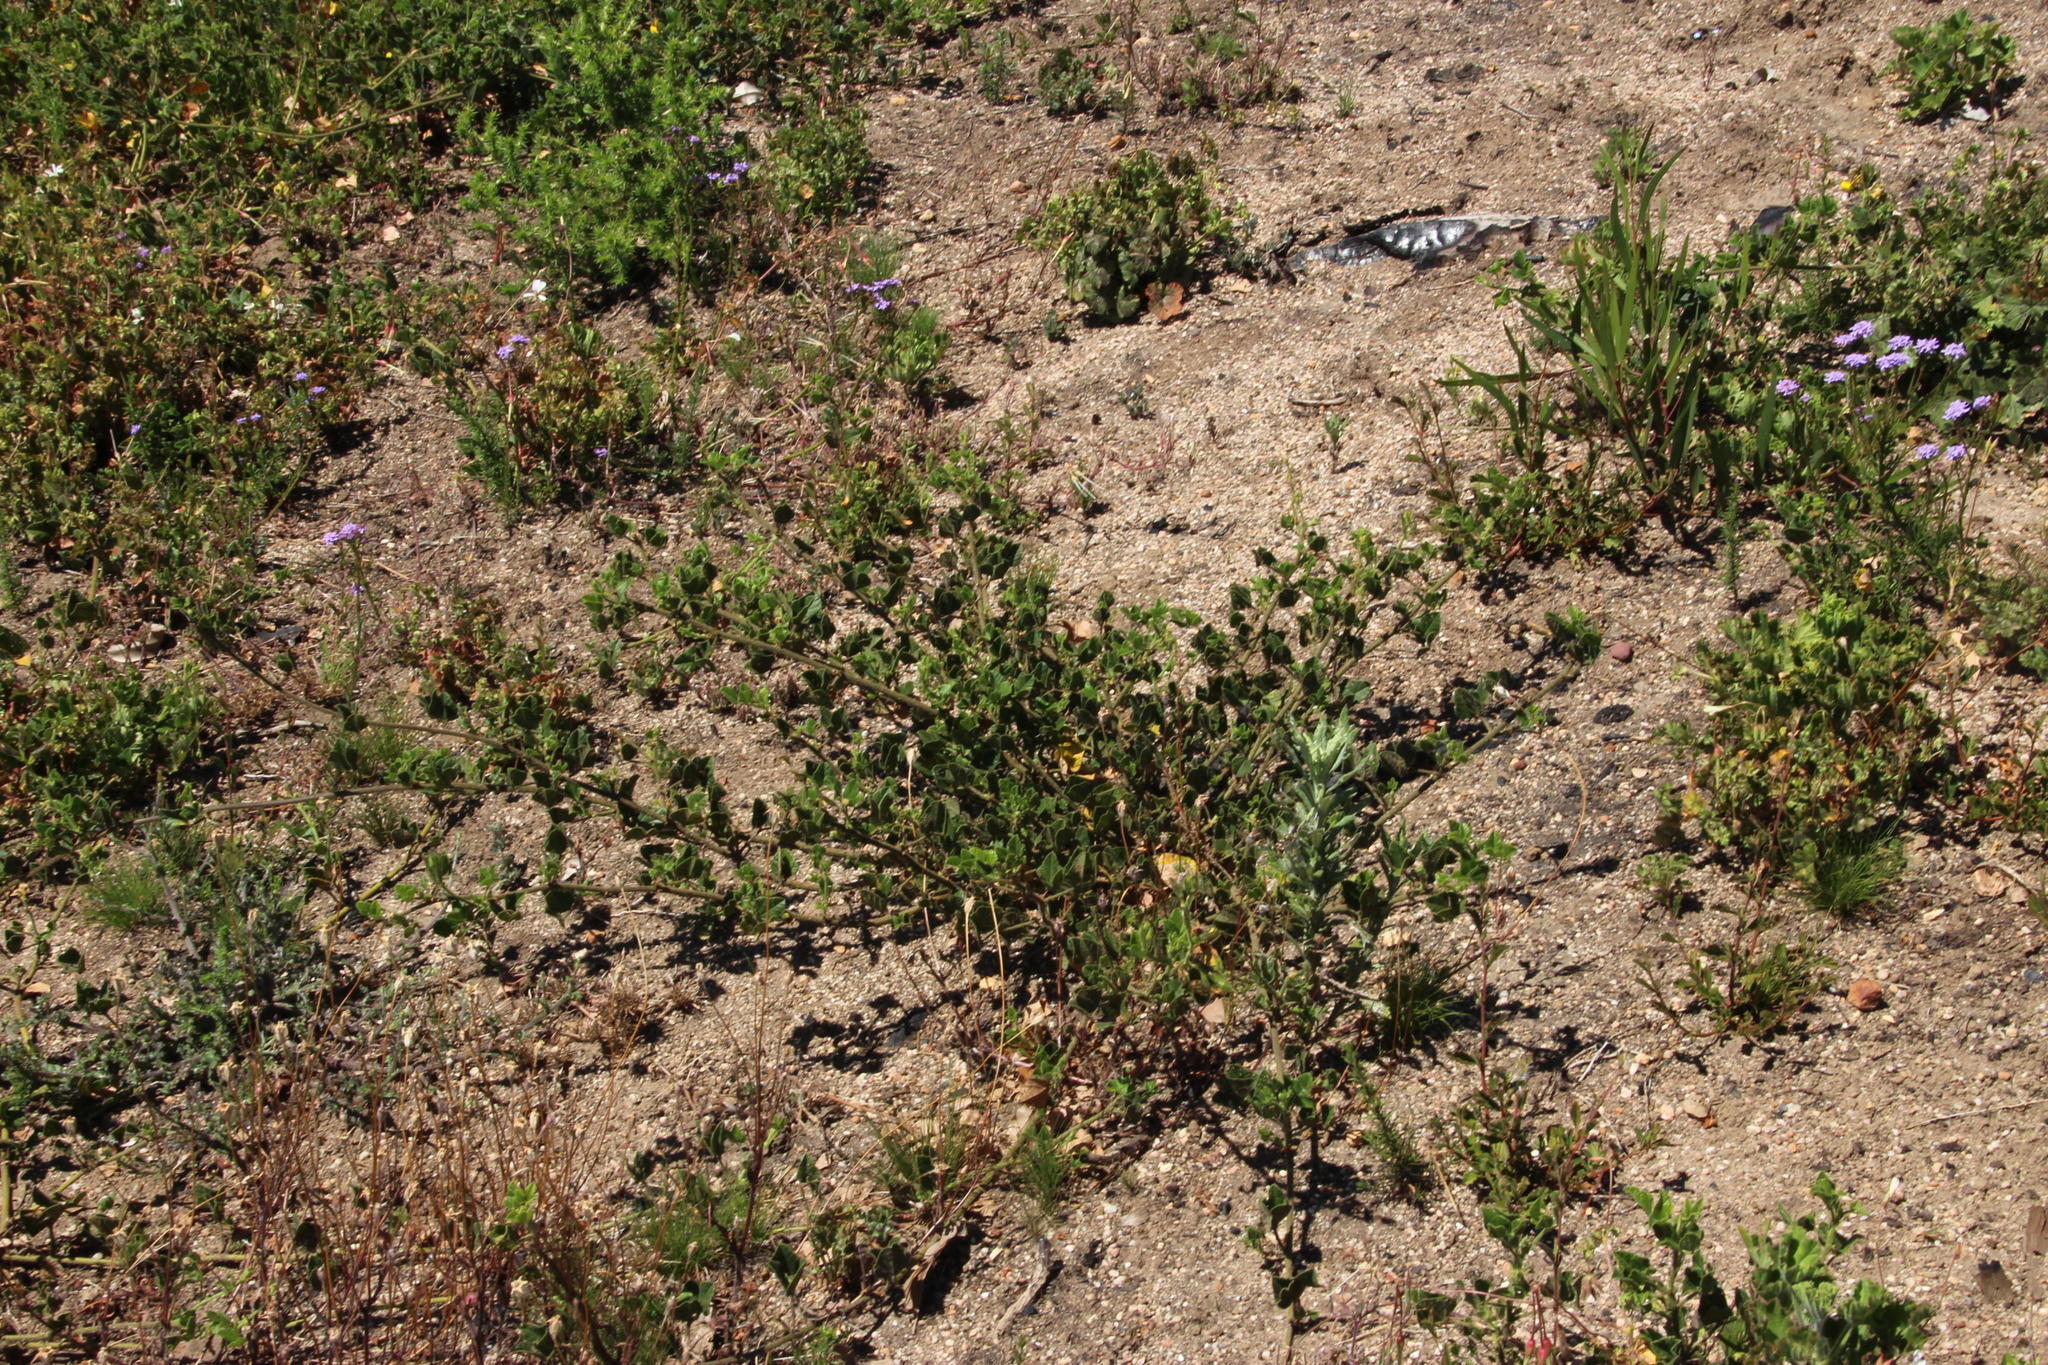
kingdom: Plantae
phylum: Tracheophyta
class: Magnoliopsida
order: Fabales
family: Fabaceae
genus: Bolusafra
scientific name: Bolusafra bituminosa
